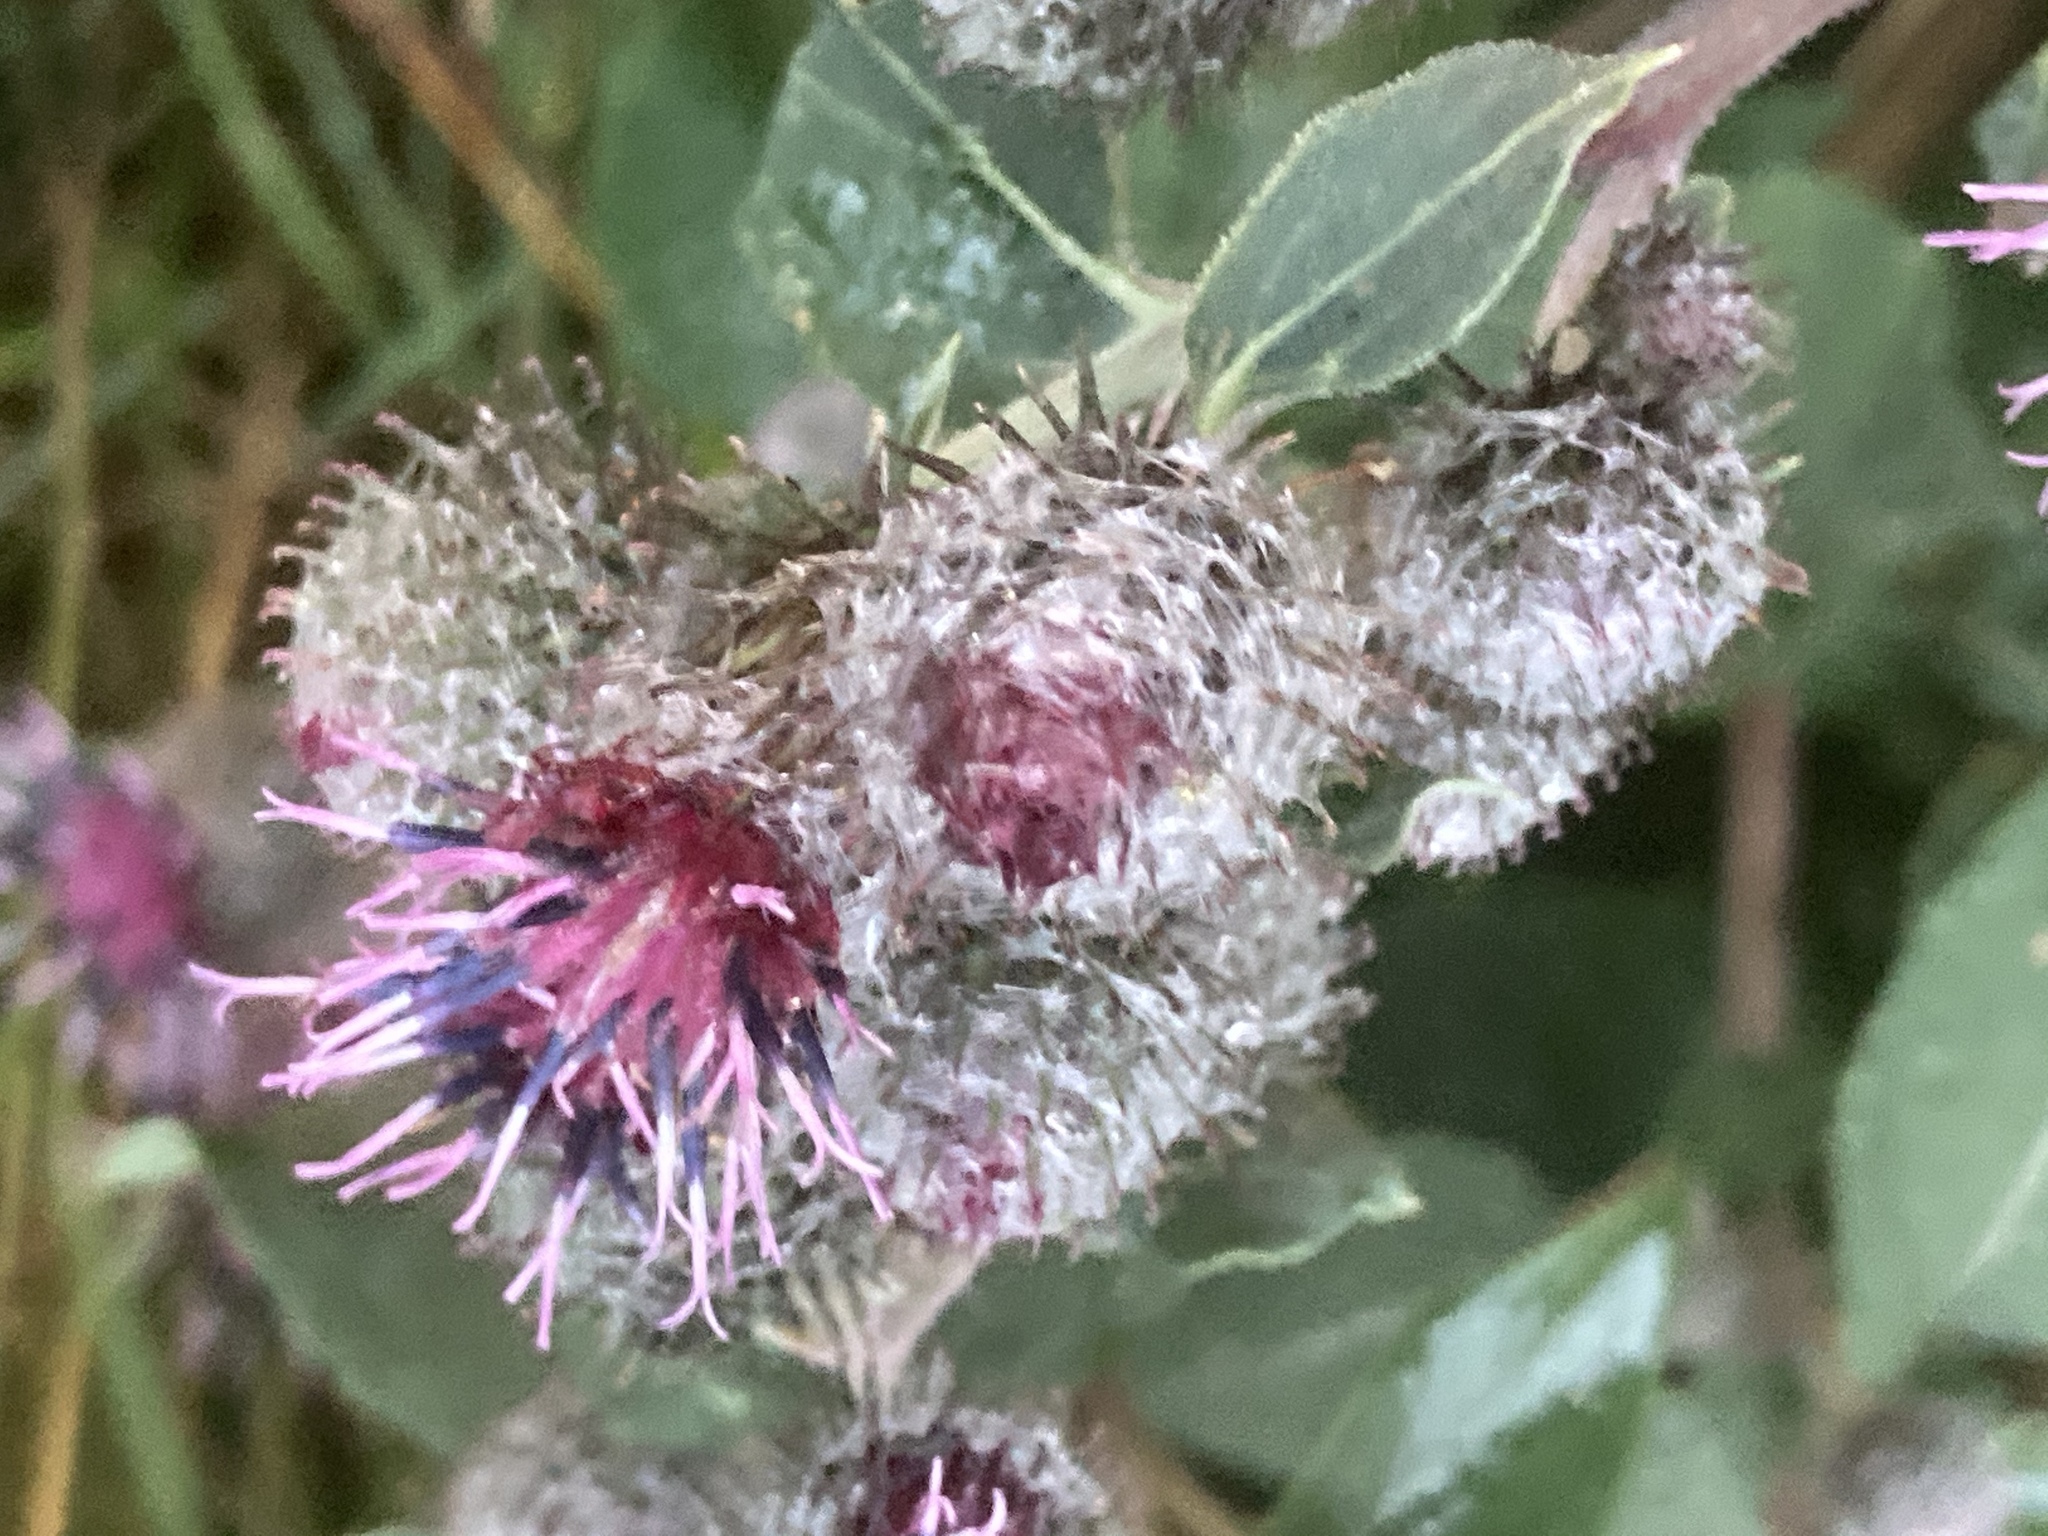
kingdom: Plantae
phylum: Tracheophyta
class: Magnoliopsida
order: Asterales
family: Asteraceae
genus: Arctium
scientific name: Arctium tomentosum
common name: Woolly burdock
